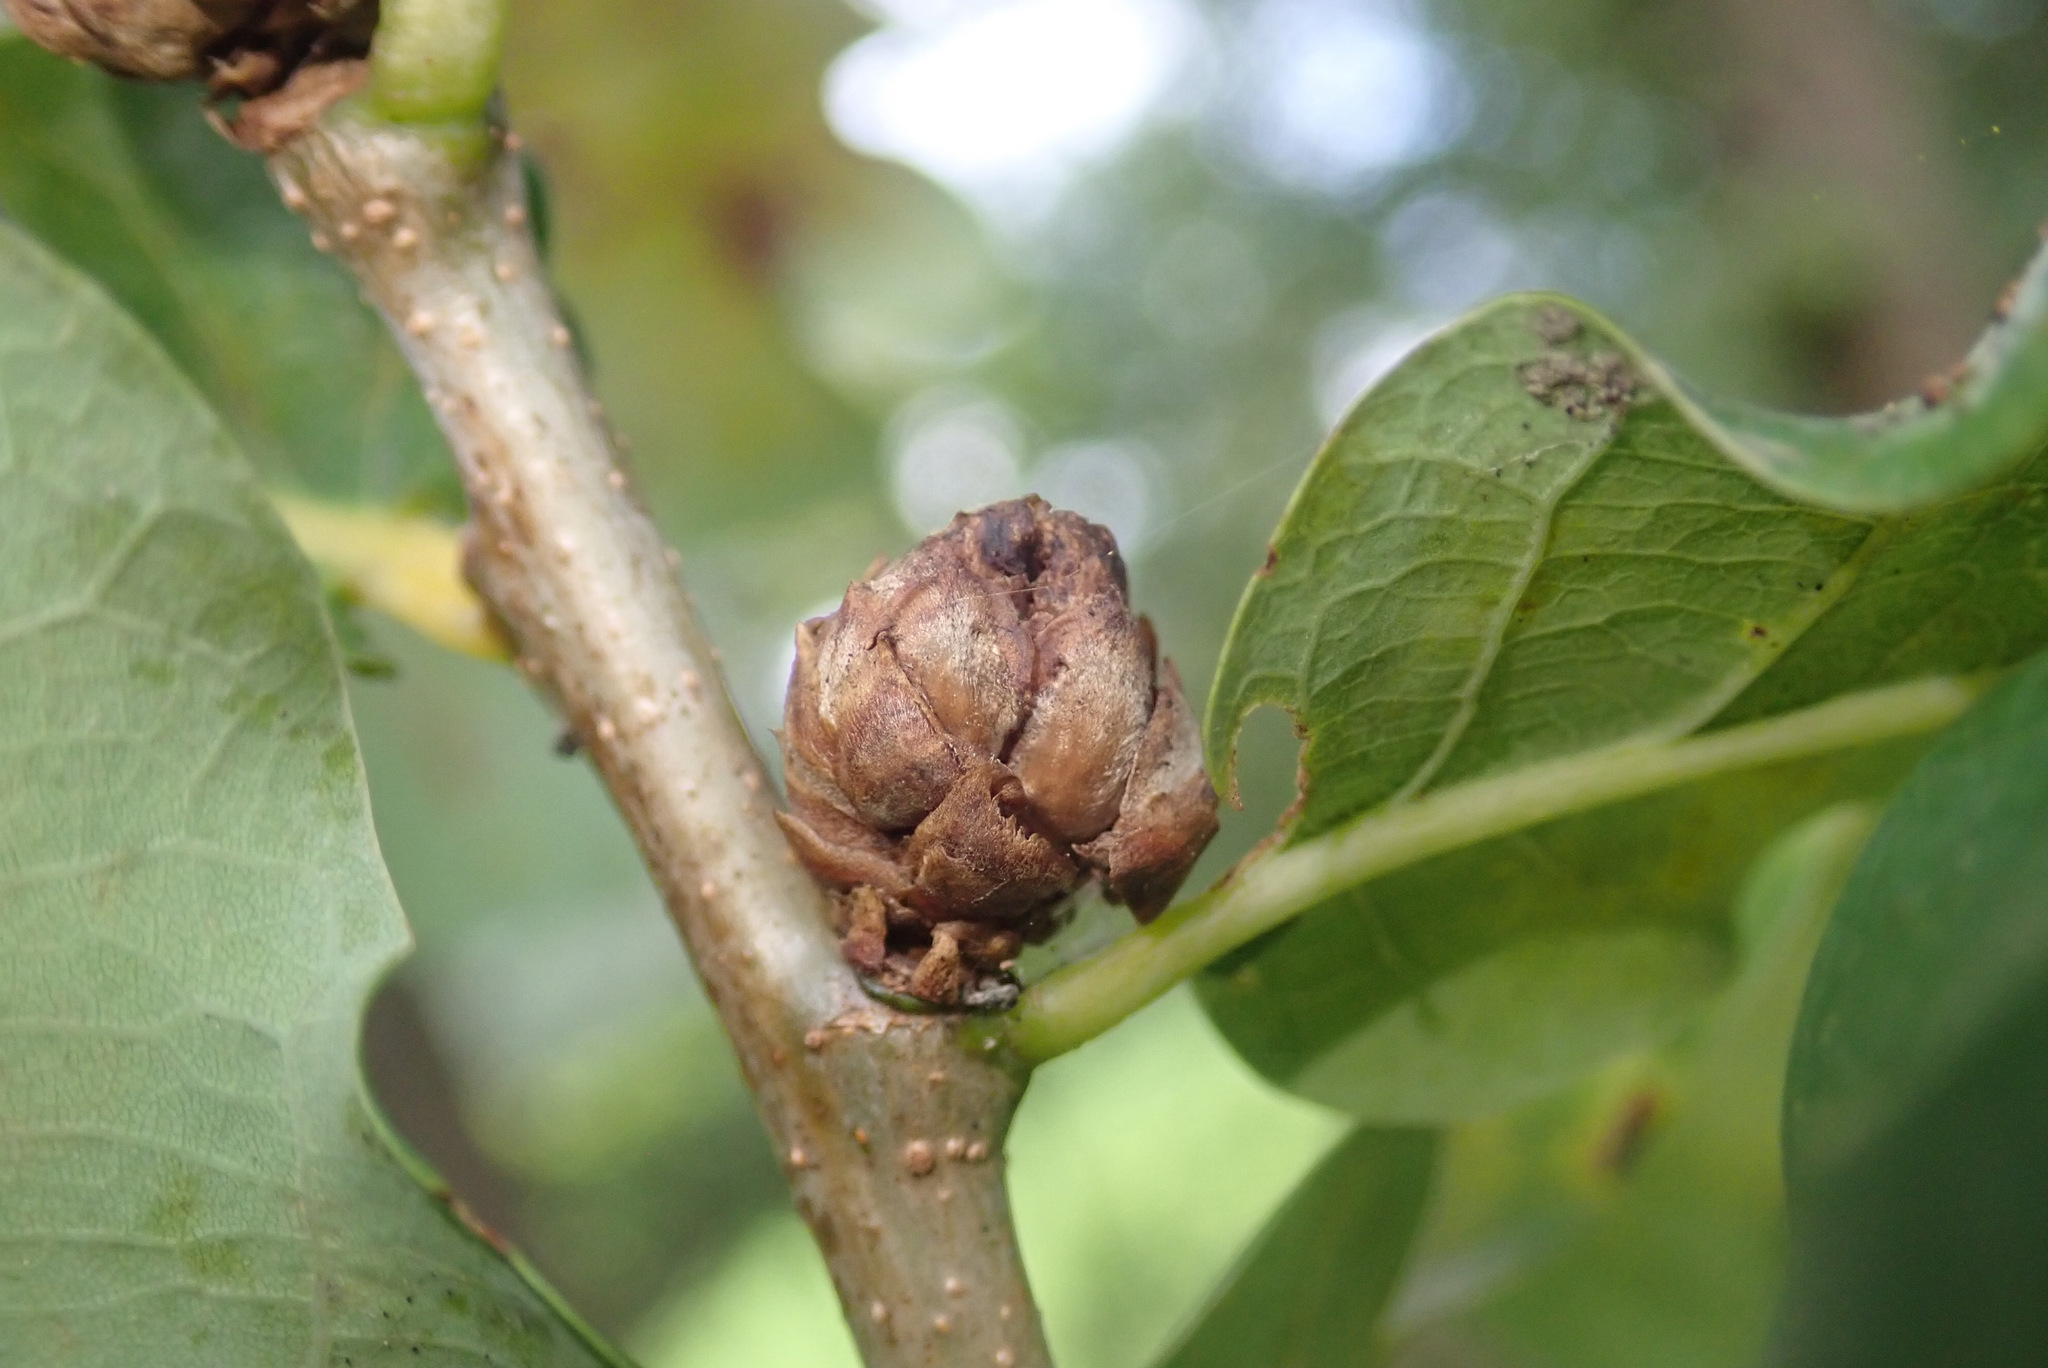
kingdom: Animalia
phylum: Arthropoda
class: Insecta
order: Hymenoptera
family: Cynipidae
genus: Andricus
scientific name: Andricus foecundatrix
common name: Artichoke gall
